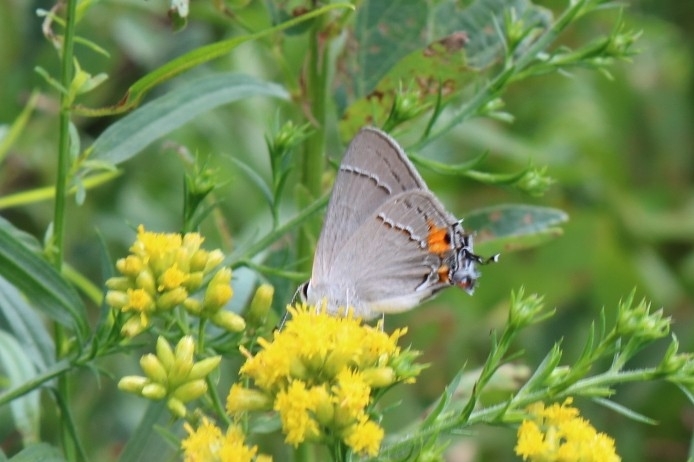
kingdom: Animalia
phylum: Arthropoda
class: Insecta
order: Lepidoptera
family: Lycaenidae
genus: Strymon
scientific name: Strymon melinus
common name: Gray hairstreak
